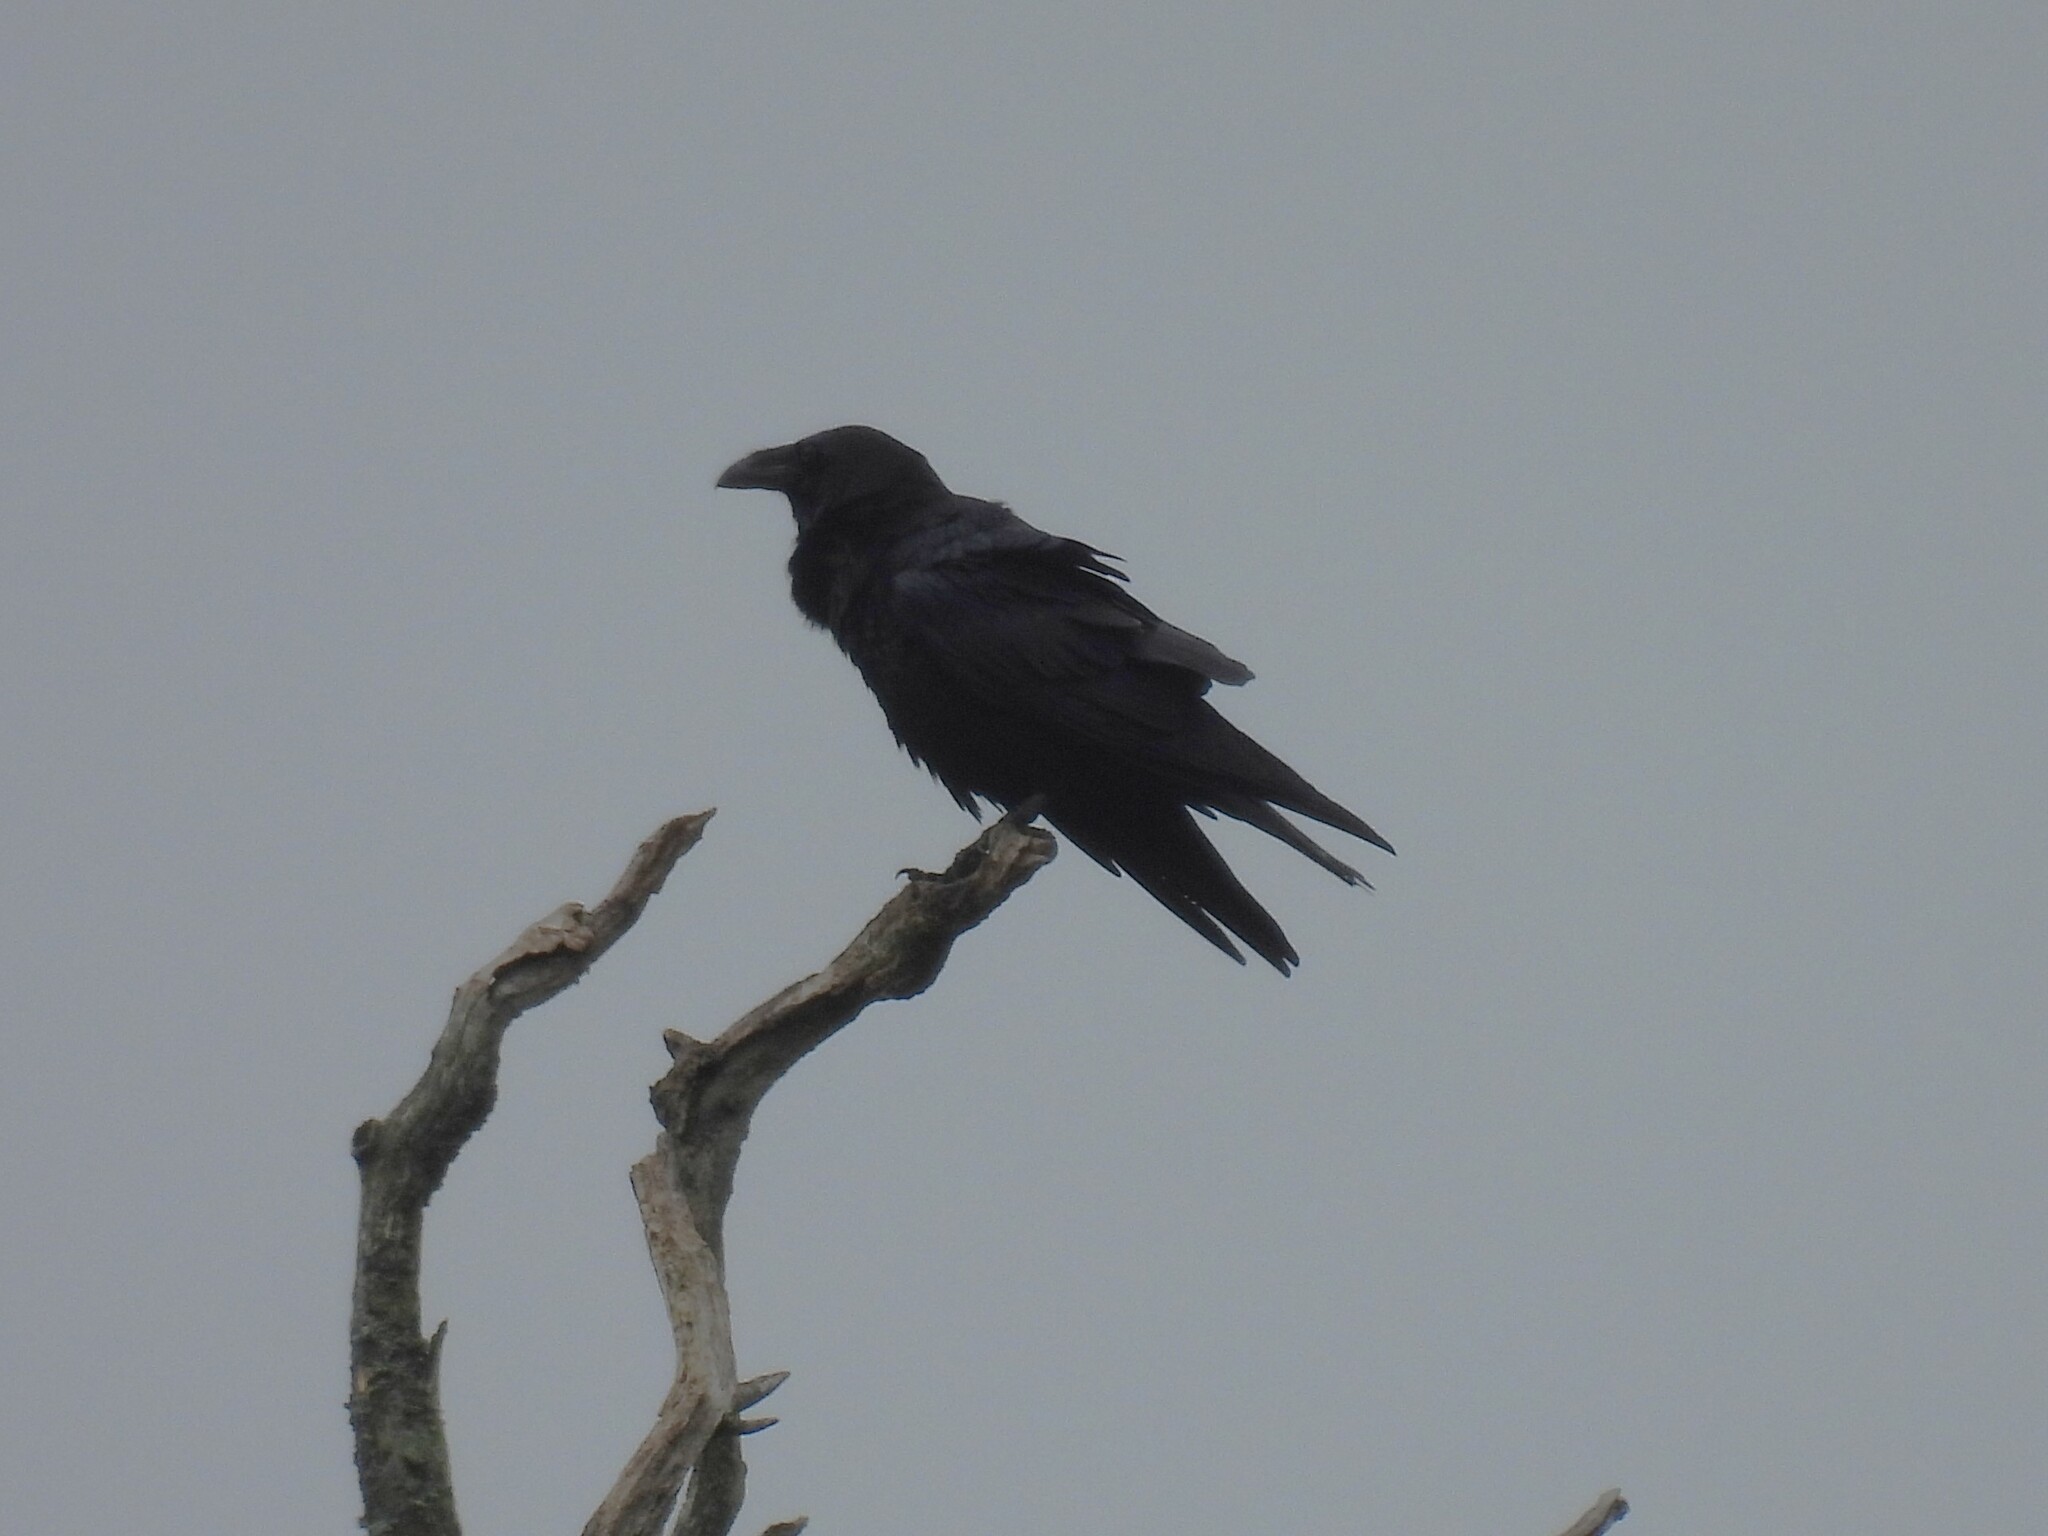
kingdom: Animalia
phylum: Chordata
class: Aves
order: Passeriformes
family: Corvidae
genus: Corvus
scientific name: Corvus corax
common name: Common raven
